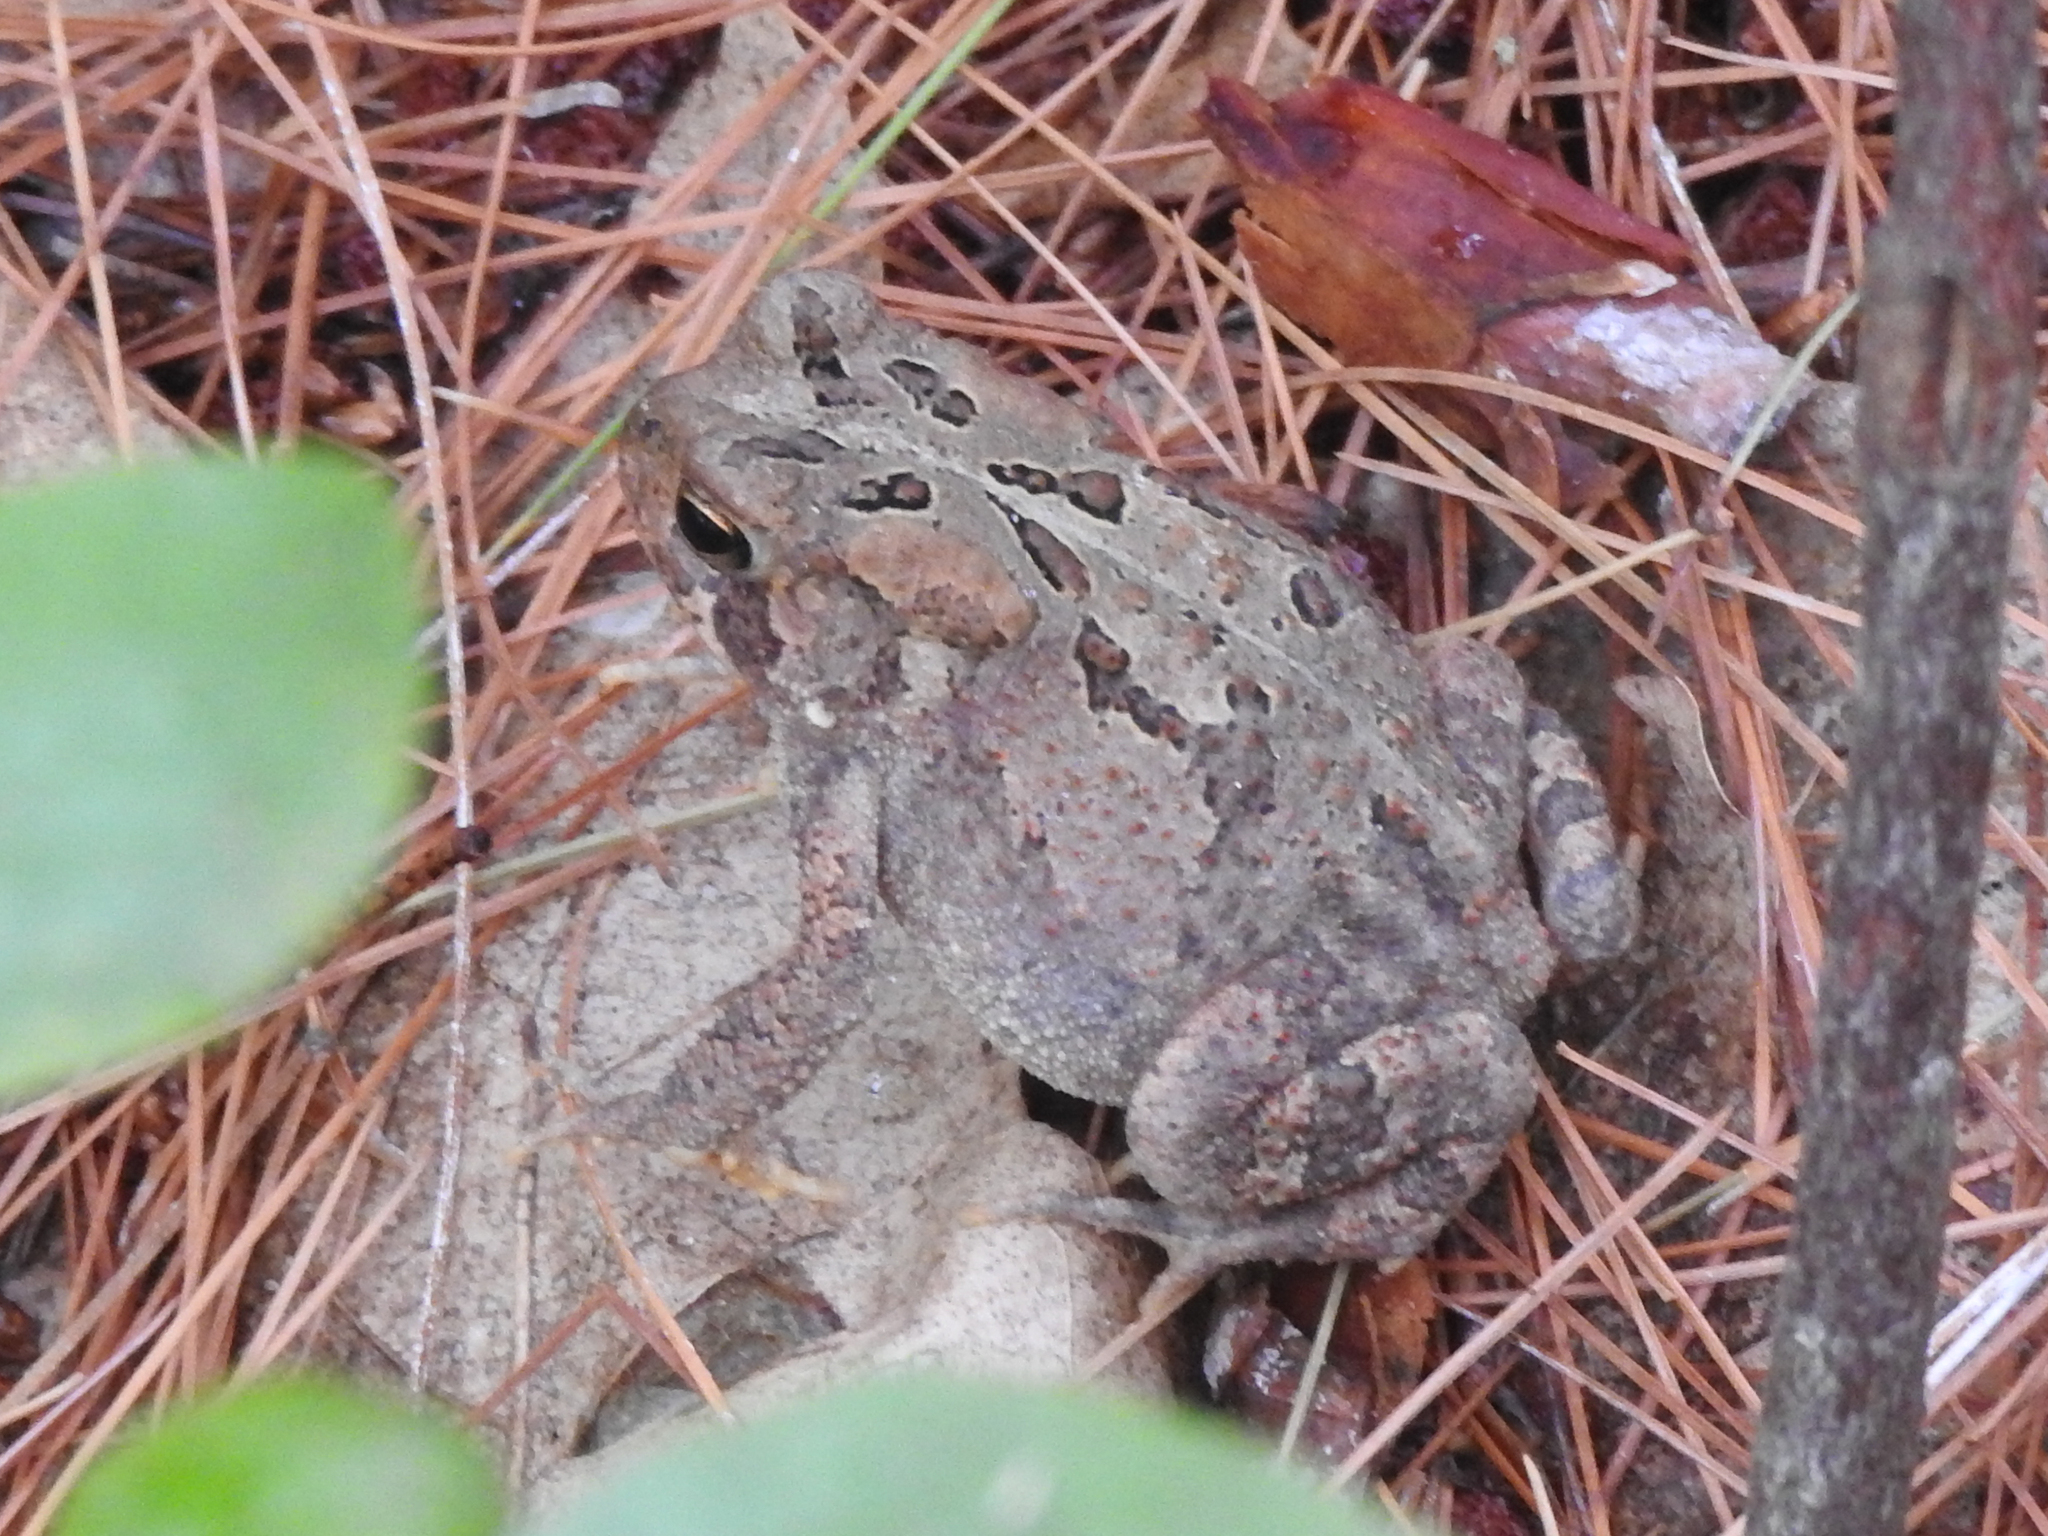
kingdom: Animalia
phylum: Chordata
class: Amphibia
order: Anura
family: Bufonidae
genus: Anaxyrus
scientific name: Anaxyrus americanus
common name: American toad
